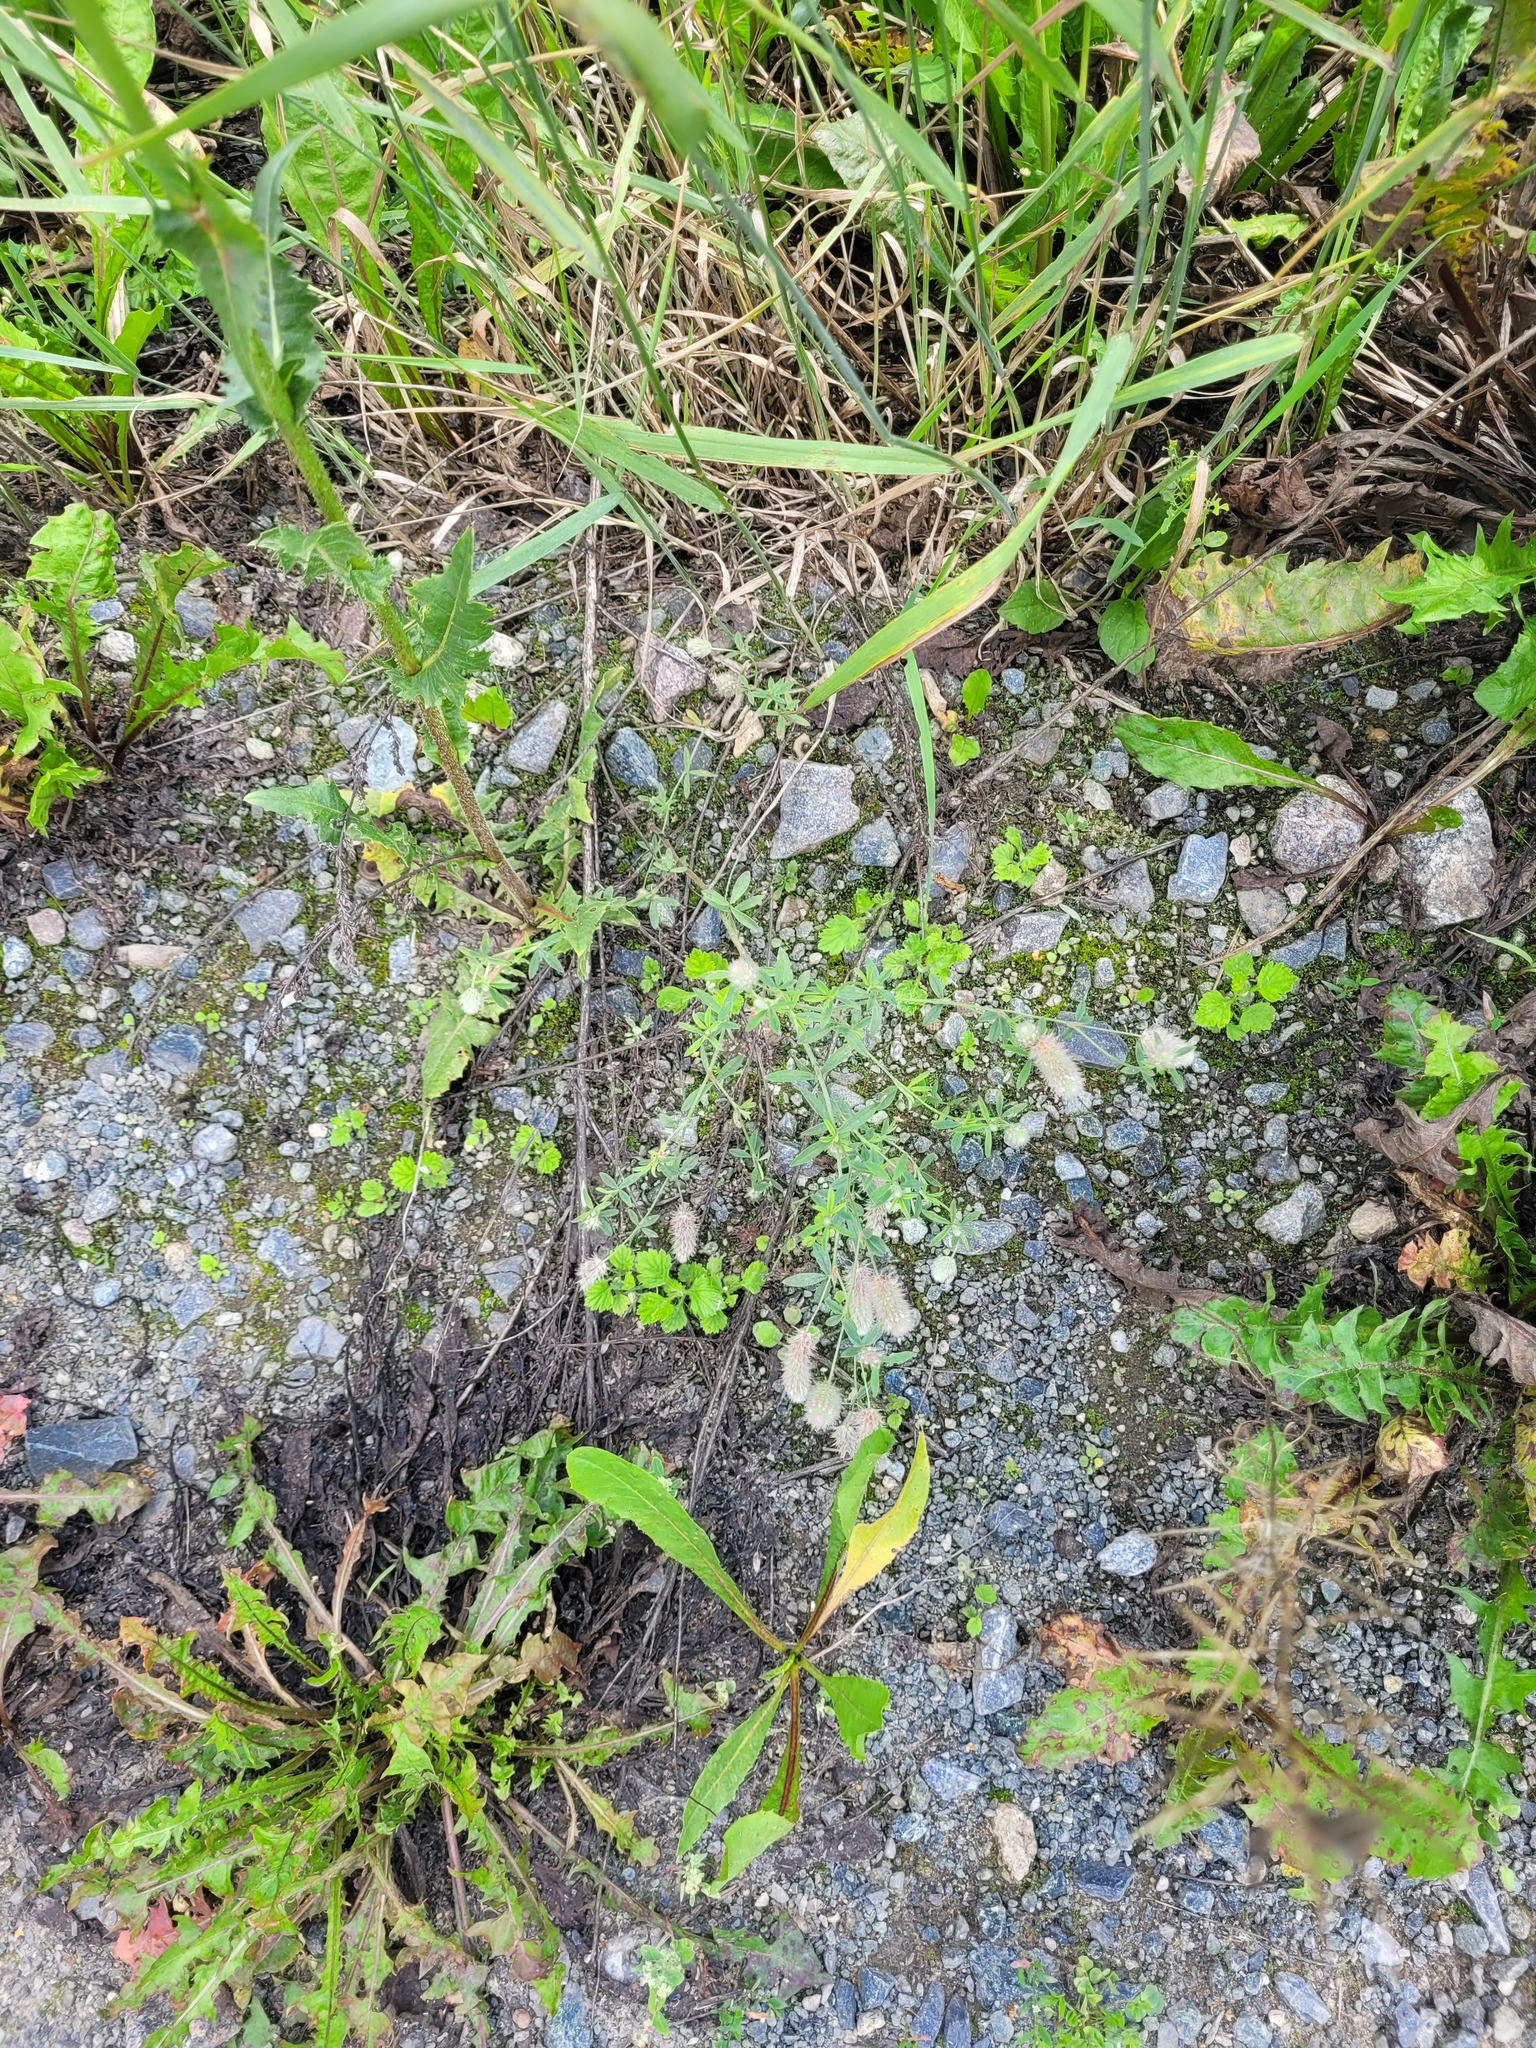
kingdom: Plantae
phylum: Tracheophyta
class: Magnoliopsida
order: Fabales
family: Fabaceae
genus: Trifolium
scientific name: Trifolium arvense
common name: Hare's-foot clover
